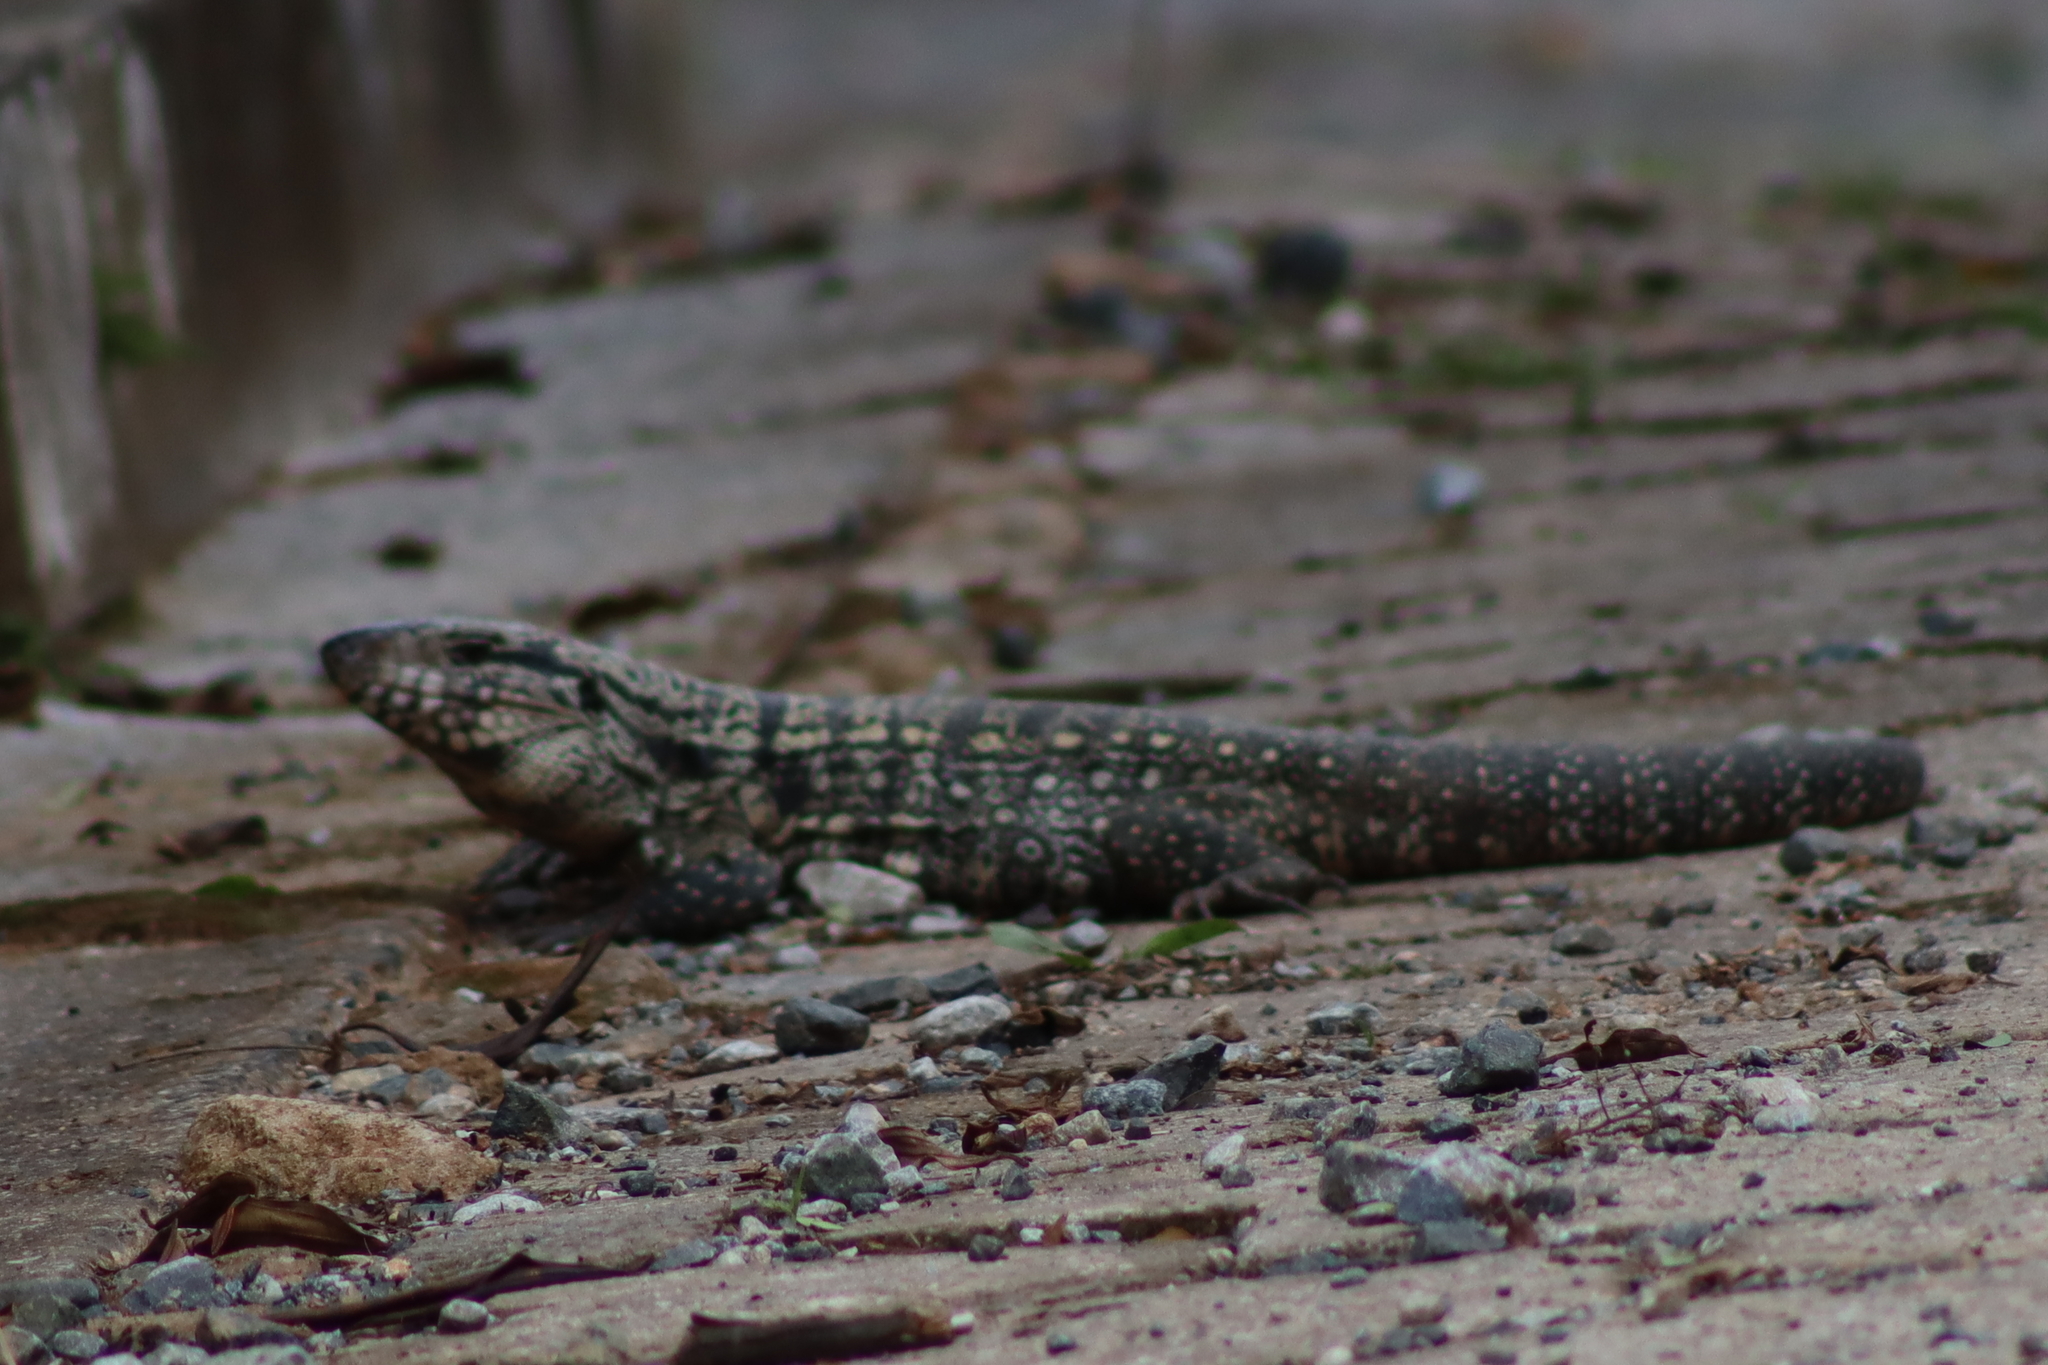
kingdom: Animalia
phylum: Chordata
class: Squamata
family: Teiidae
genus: Salvator
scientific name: Salvator merianae
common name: Argentine black and white tegu
